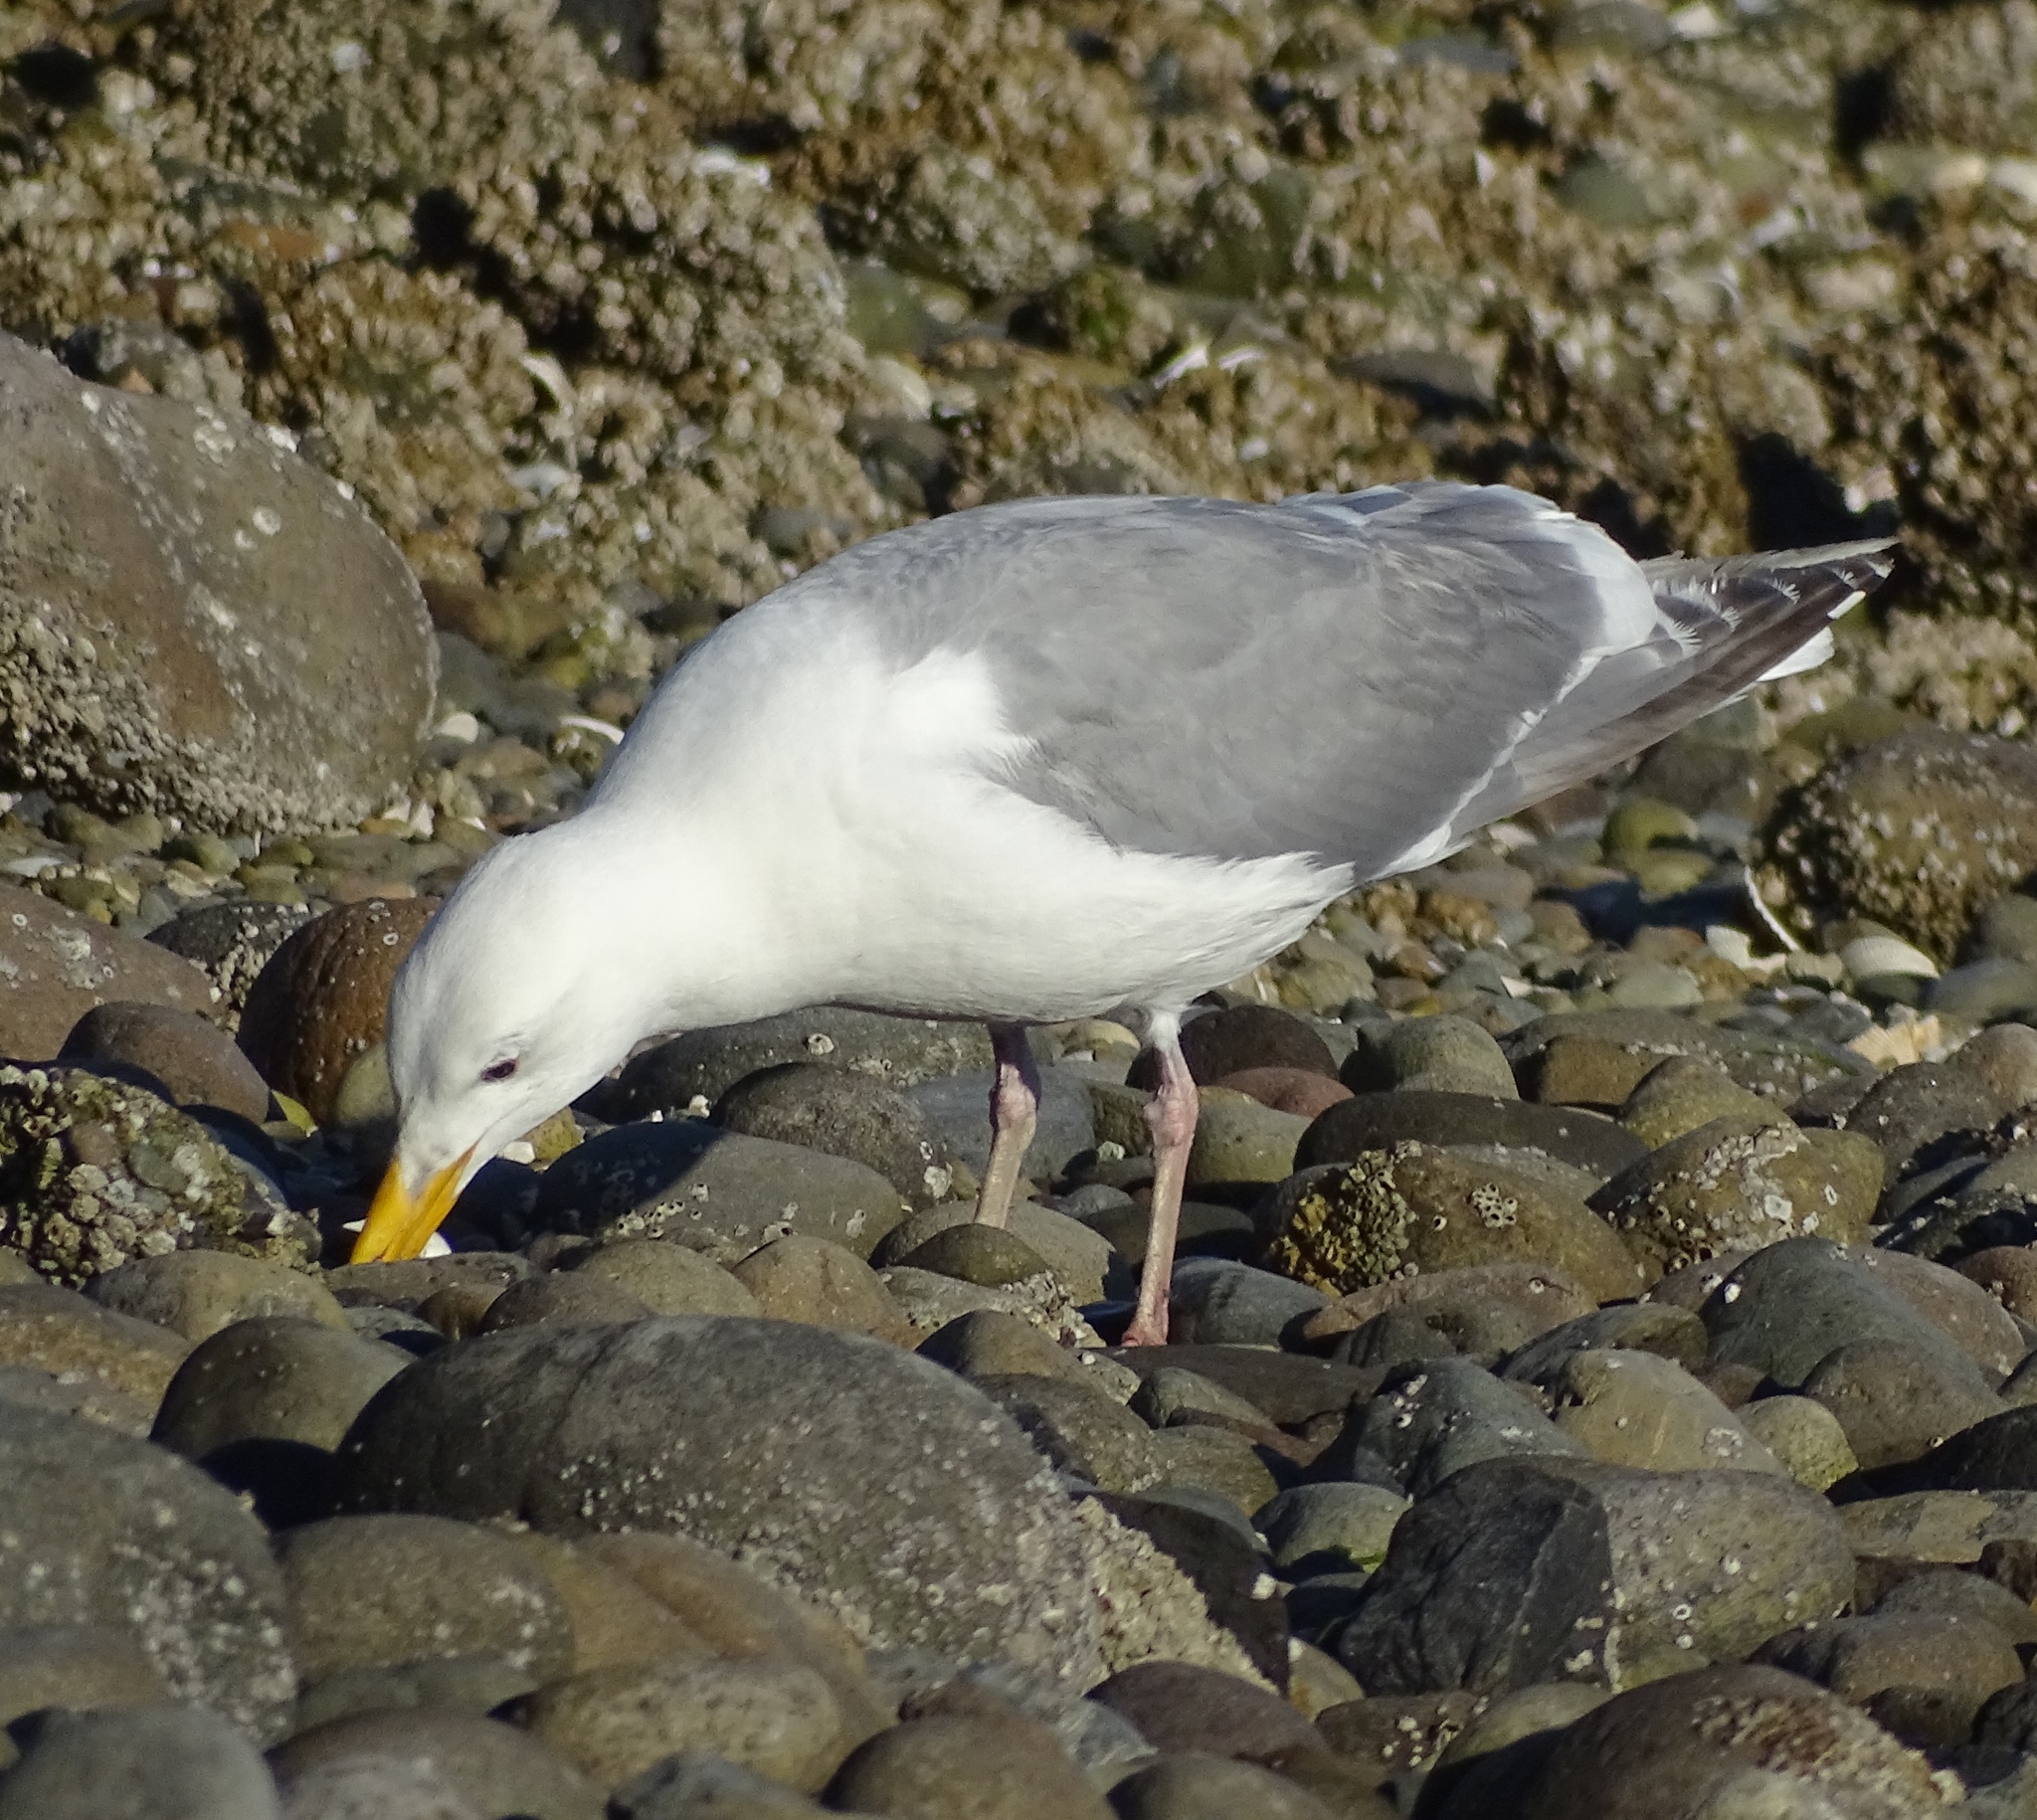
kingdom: Animalia
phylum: Chordata
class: Aves
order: Charadriiformes
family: Laridae
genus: Larus
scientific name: Larus
